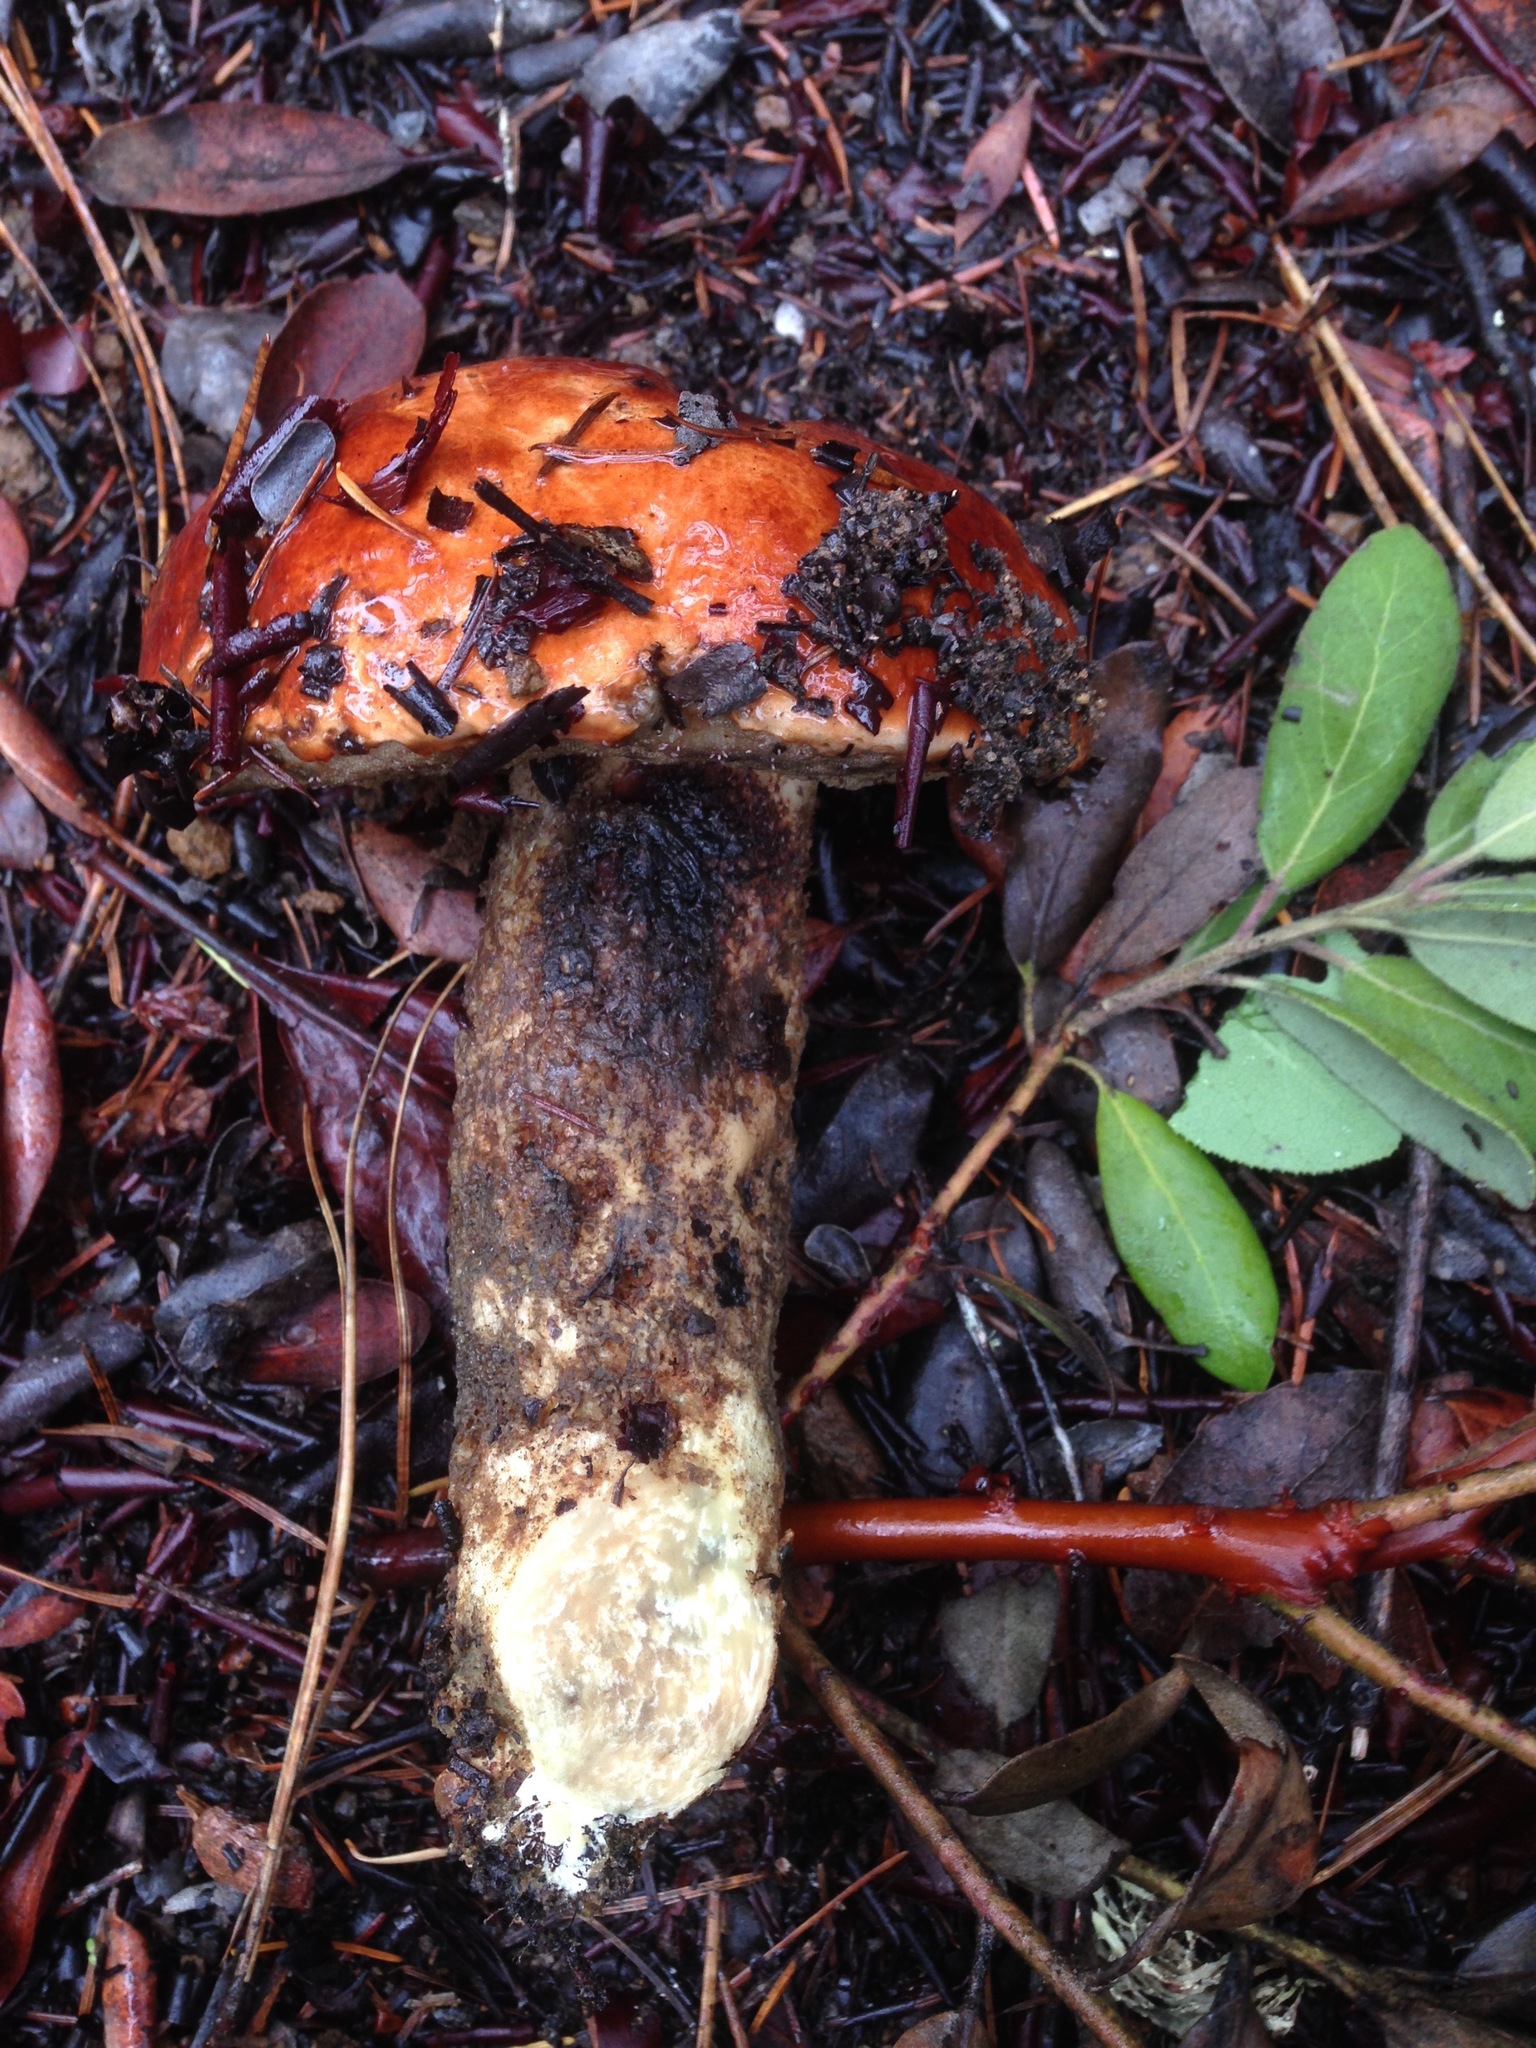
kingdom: Fungi
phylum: Basidiomycota
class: Agaricomycetes
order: Boletales
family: Boletaceae
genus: Leccinum
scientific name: Leccinum manzanitae
